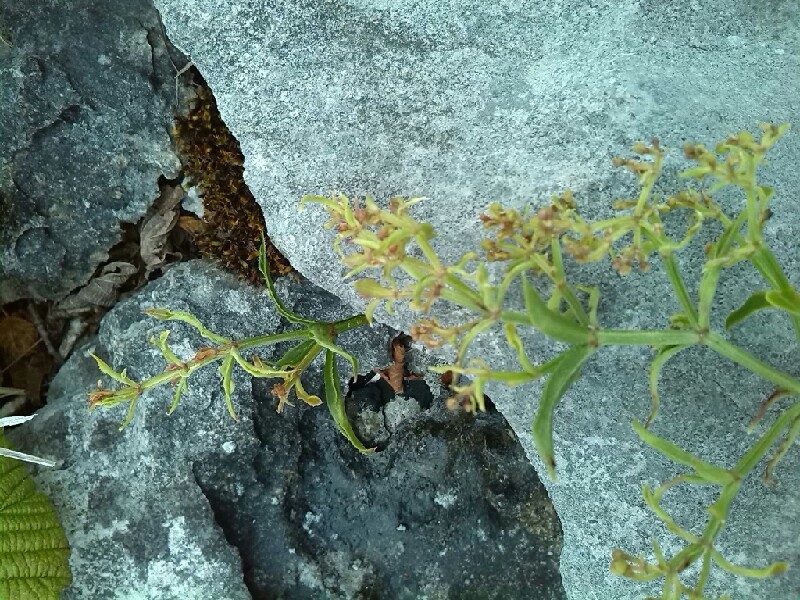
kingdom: Plantae
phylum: Tracheophyta
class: Magnoliopsida
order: Gentianales
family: Rubiaceae
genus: Rubia
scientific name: Rubia peregrina
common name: Wild madder
